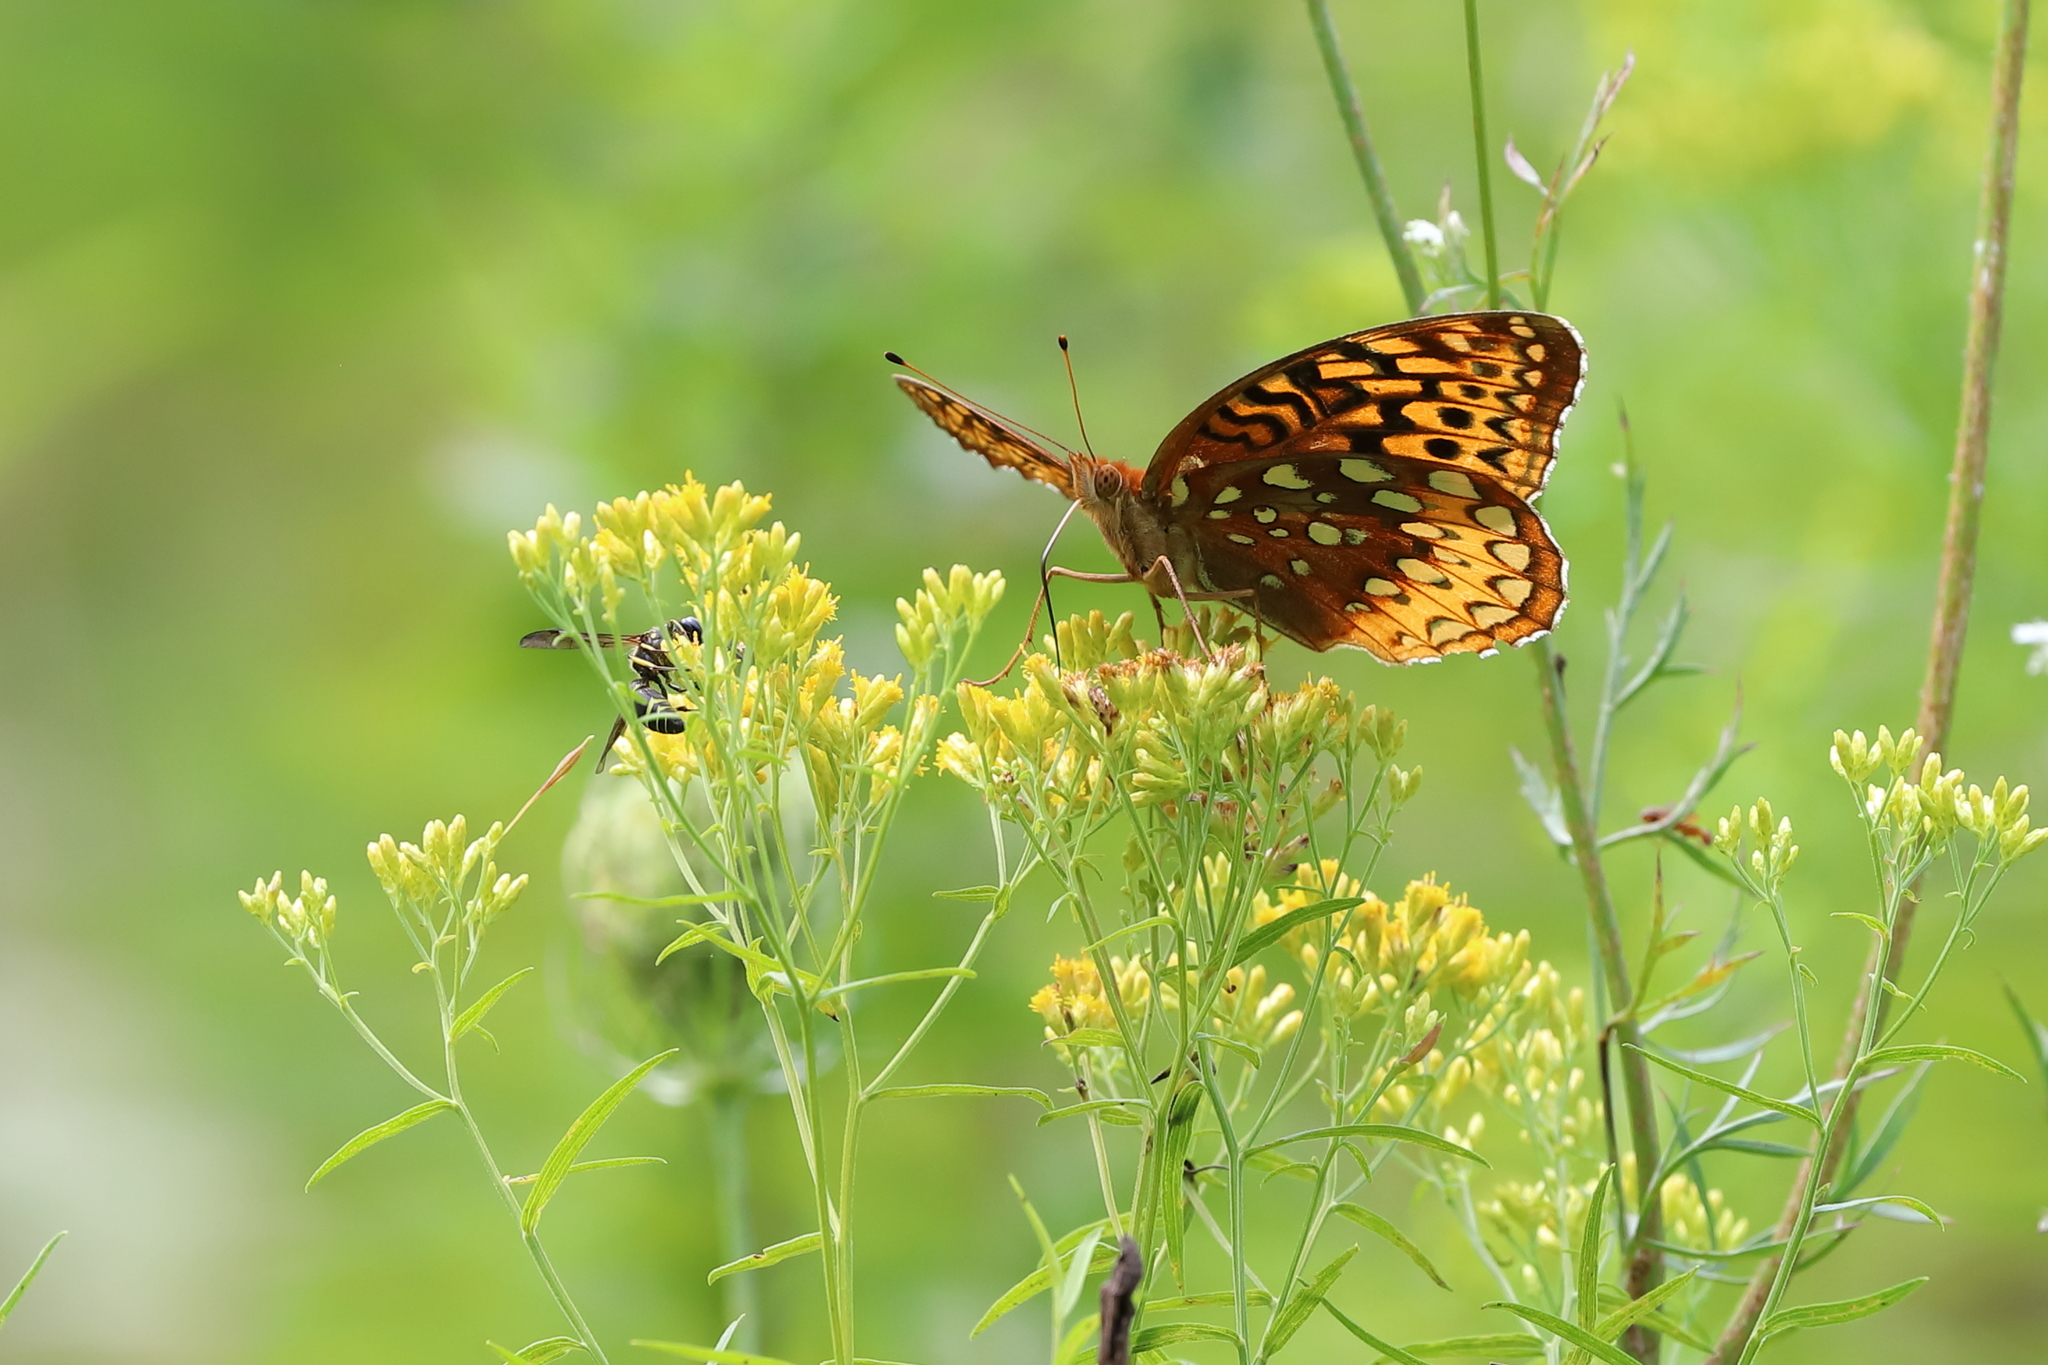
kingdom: Animalia
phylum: Arthropoda
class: Insecta
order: Lepidoptera
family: Nymphalidae
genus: Speyeria
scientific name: Speyeria cybele
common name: Great spangled fritillary
